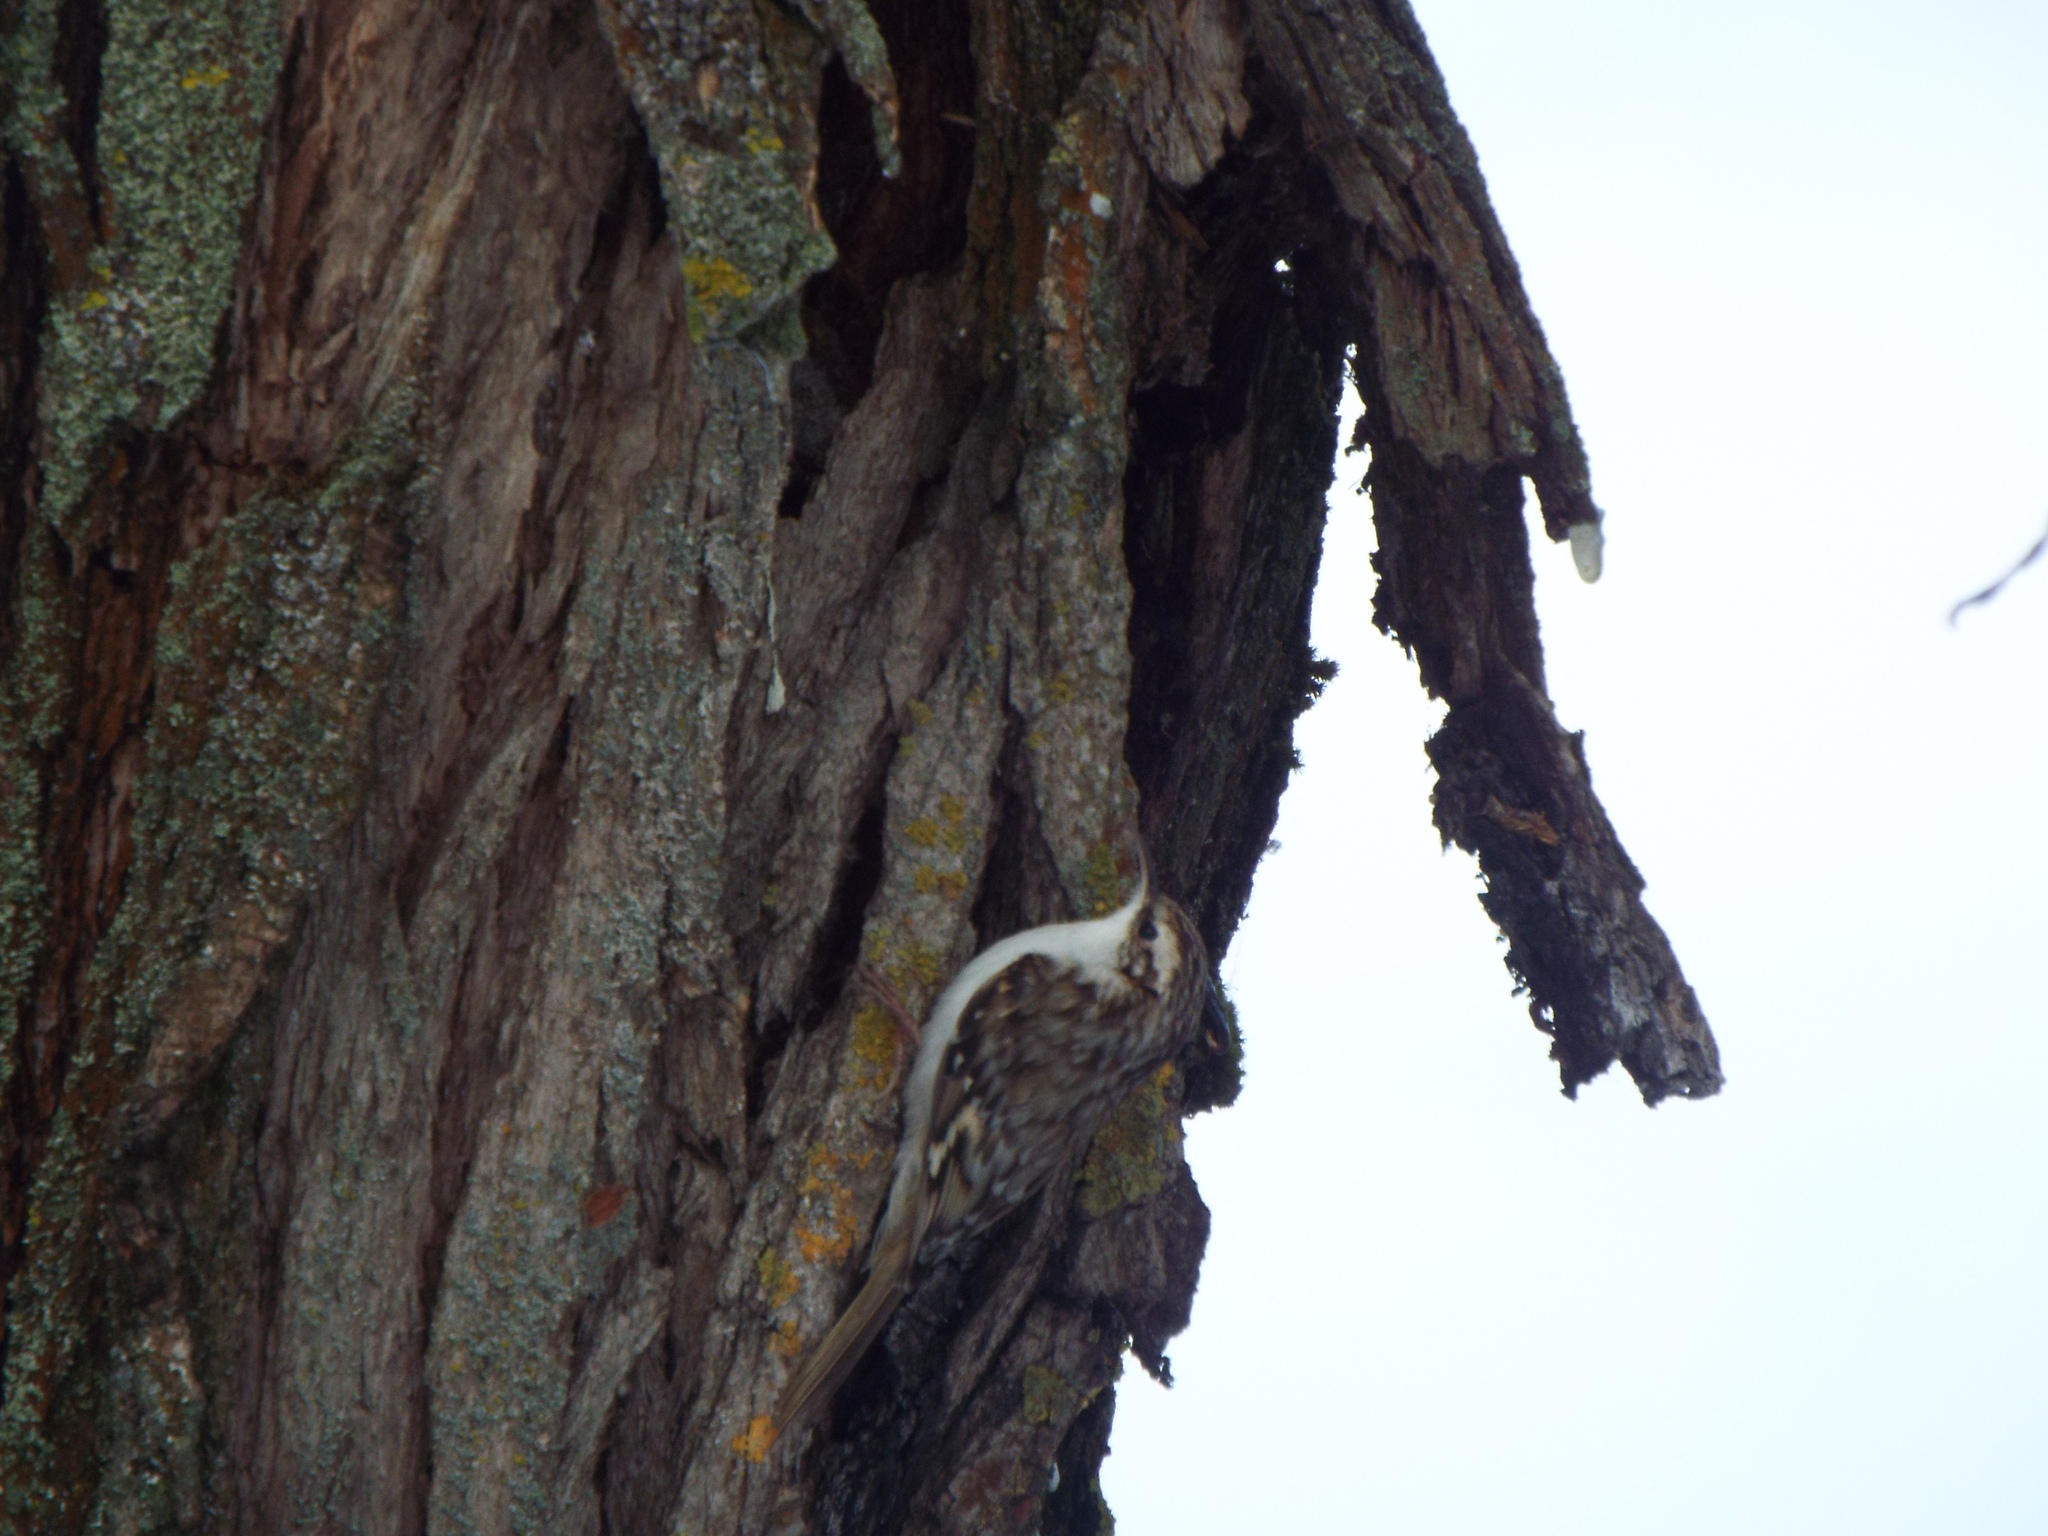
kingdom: Animalia
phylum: Chordata
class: Aves
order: Passeriformes
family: Certhiidae
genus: Certhia
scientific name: Certhia familiaris
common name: Eurasian treecreeper
